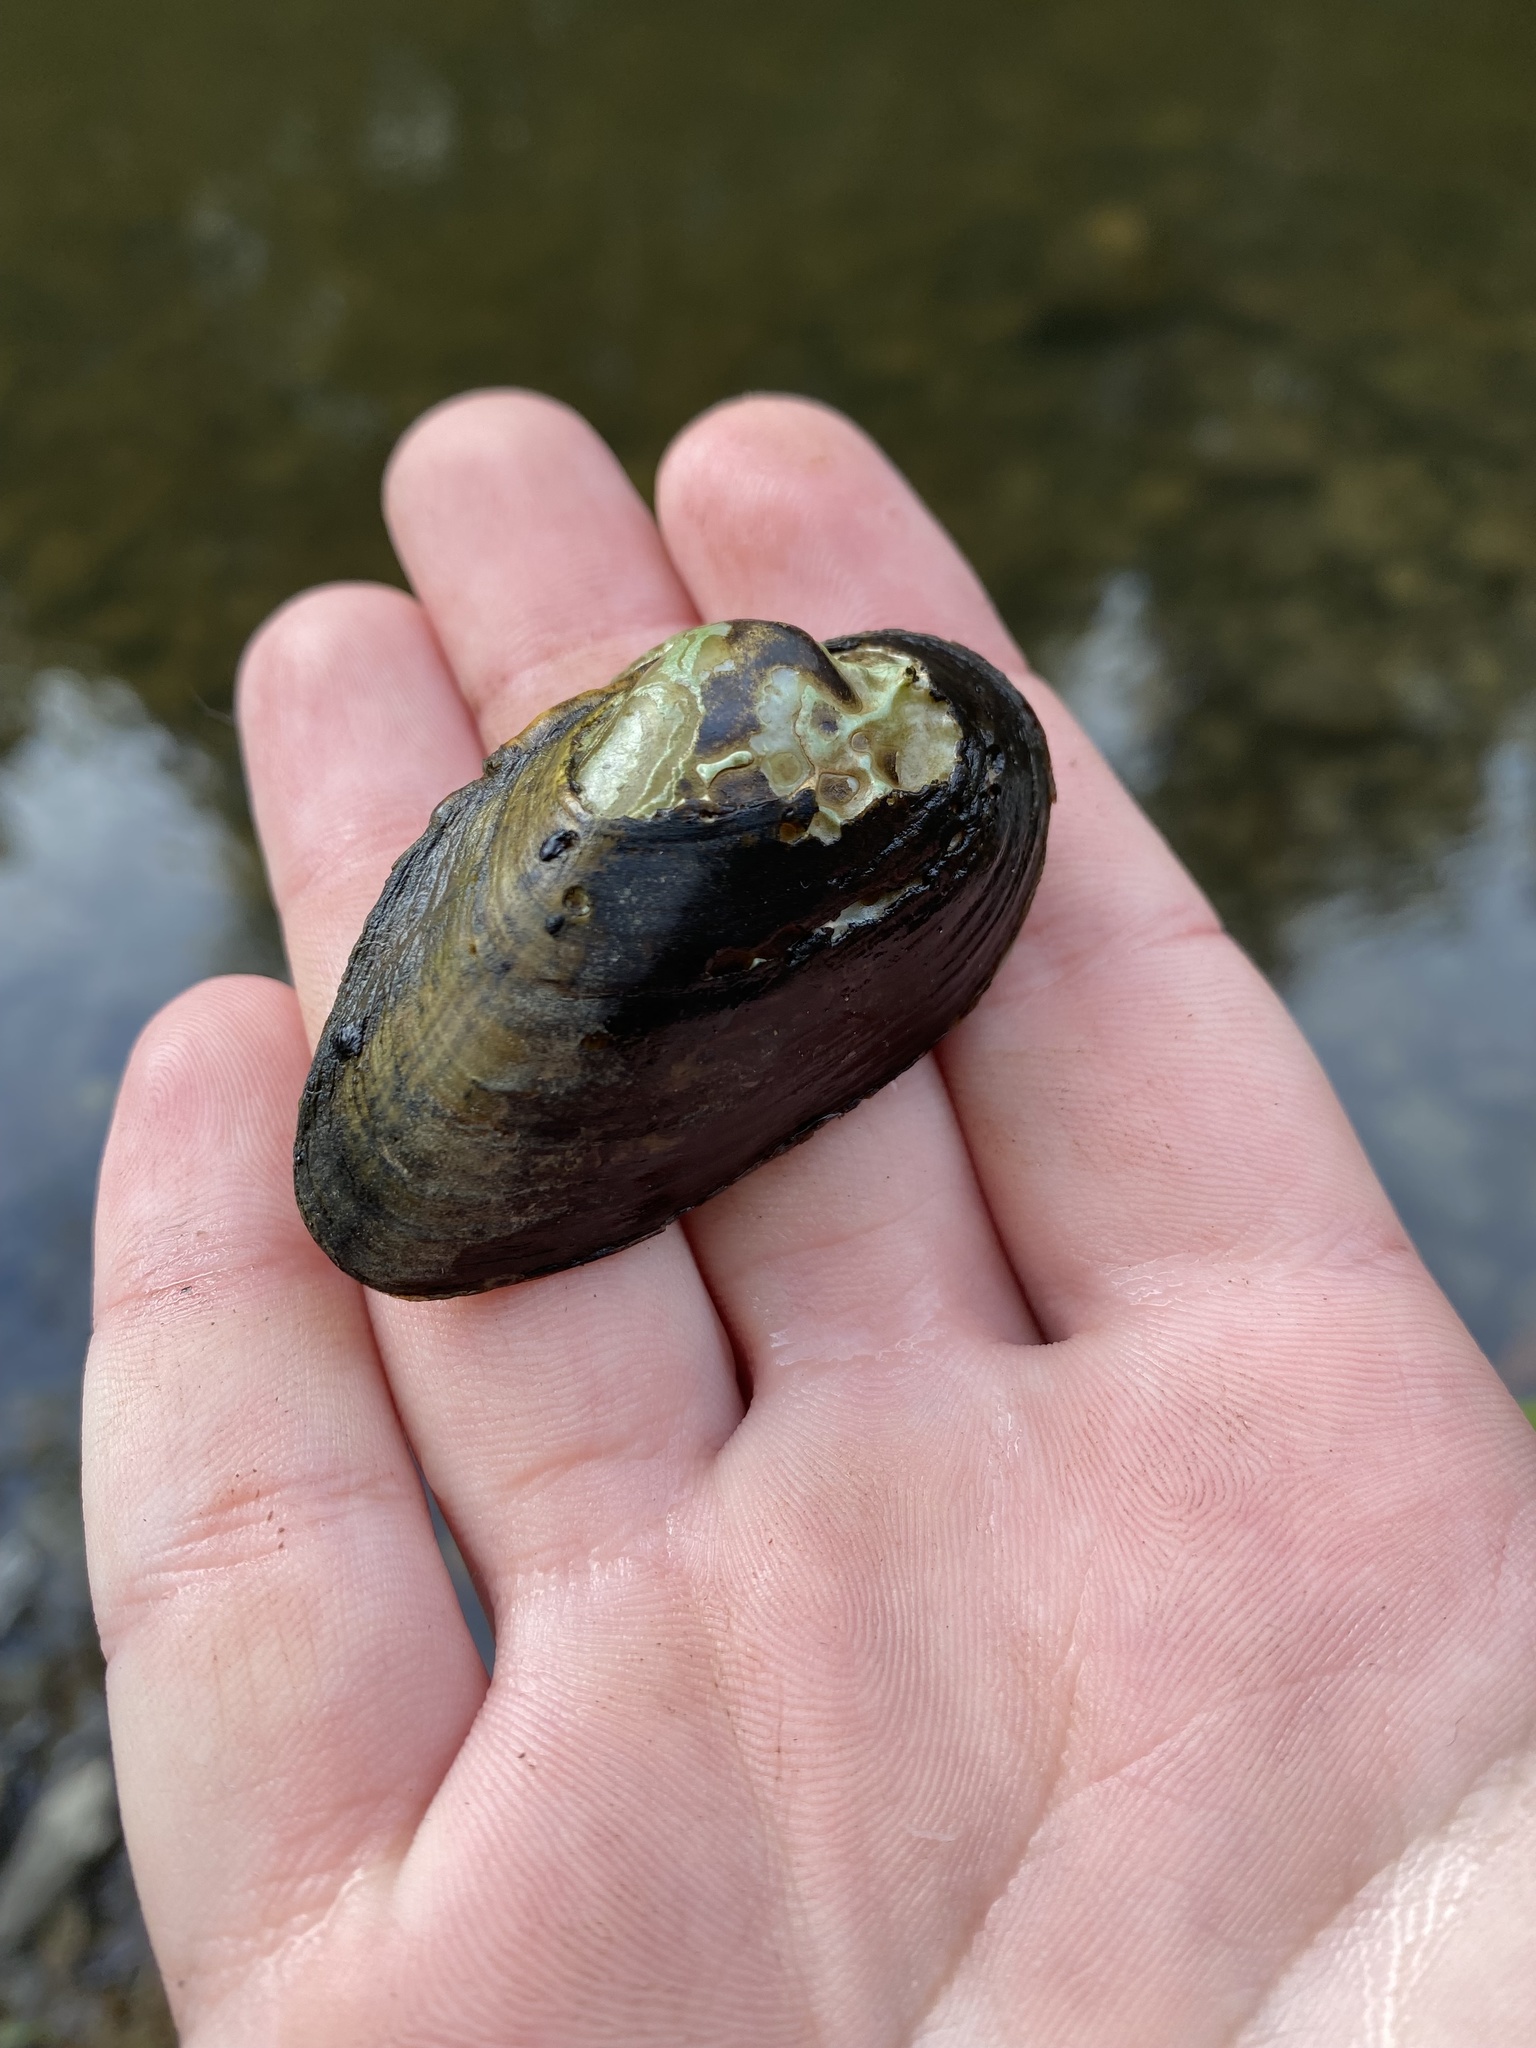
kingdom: Animalia
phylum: Mollusca
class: Bivalvia
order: Unionida
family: Unionidae
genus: Alasmidonta
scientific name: Alasmidonta
